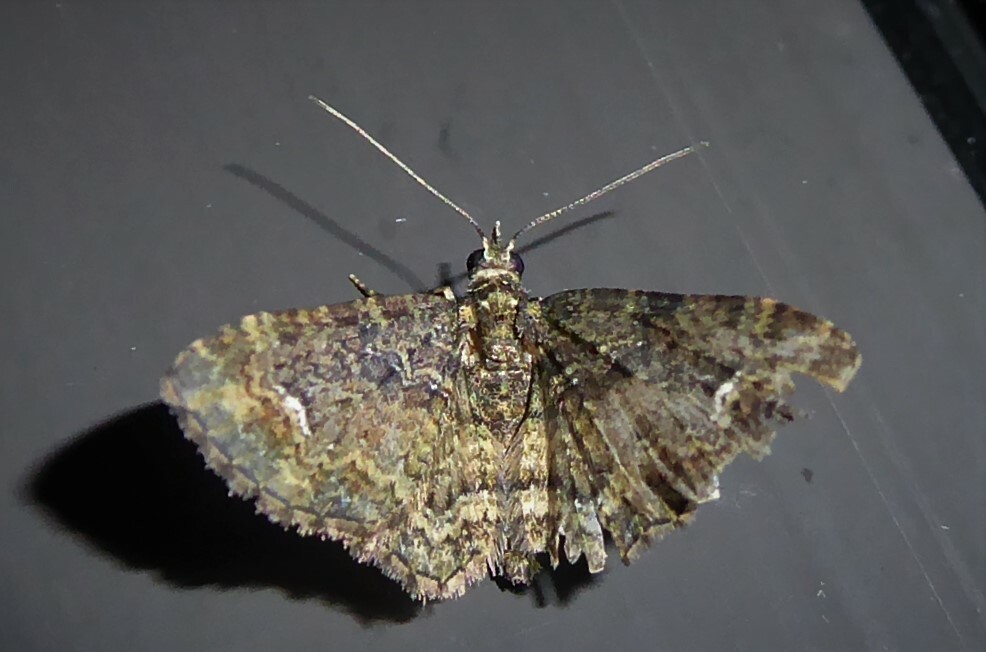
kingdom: Animalia
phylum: Arthropoda
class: Insecta
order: Lepidoptera
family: Geometridae
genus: Pasiphilodes
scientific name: Pasiphilodes testulata
